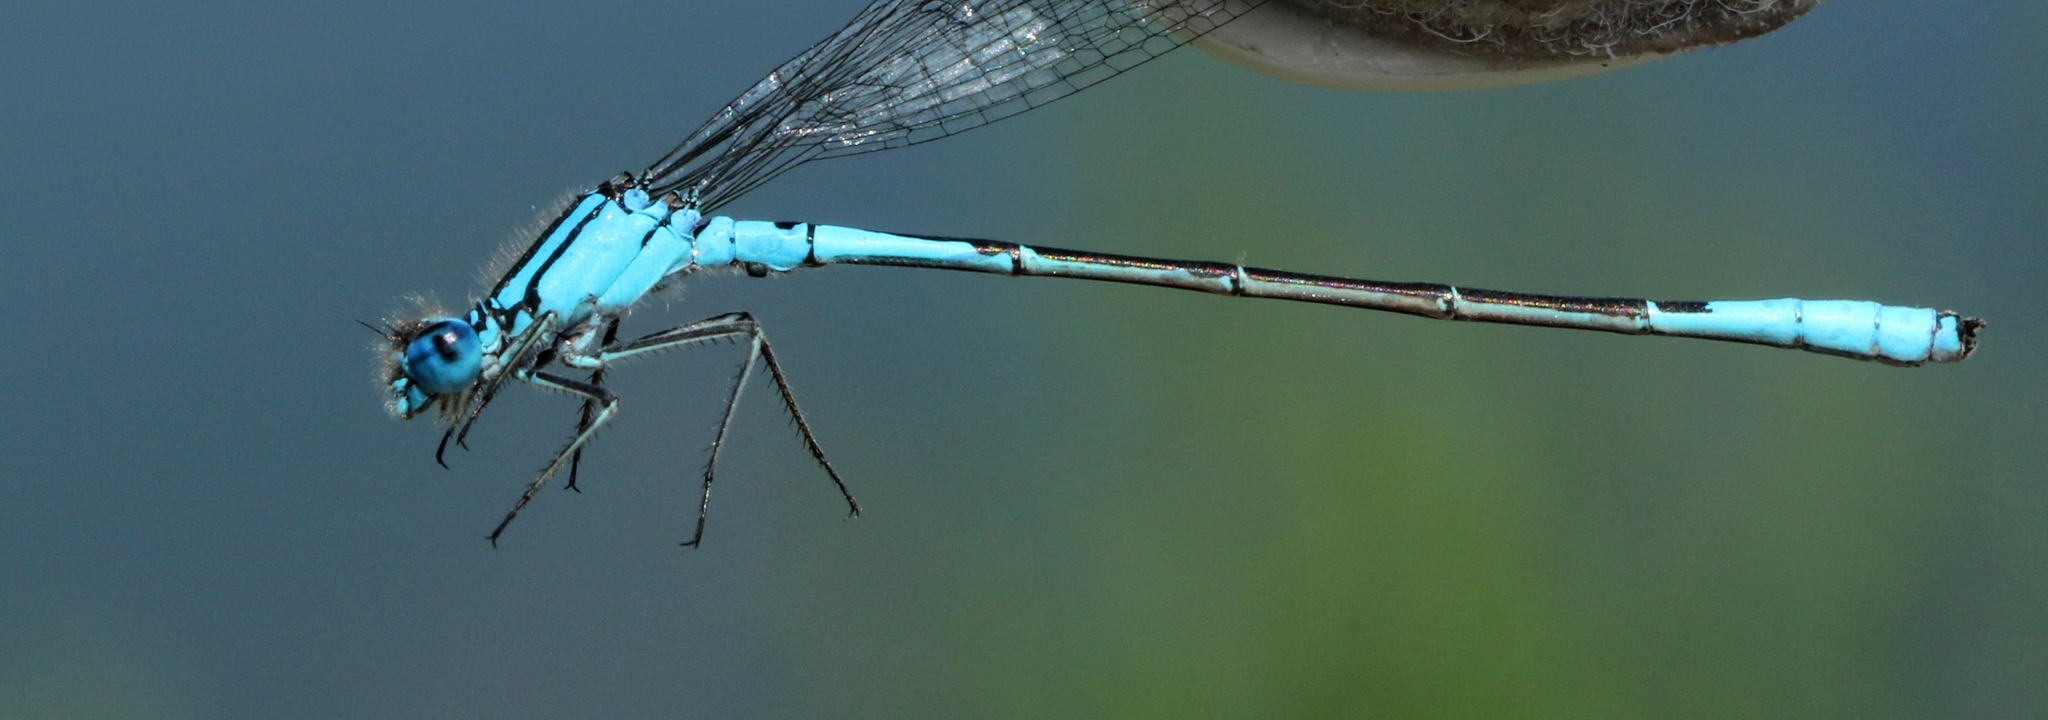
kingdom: Animalia
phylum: Arthropoda
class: Insecta
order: Odonata
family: Coenagrionidae
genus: Enallagma
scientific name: Enallagma aspersum
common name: Azure bluet
